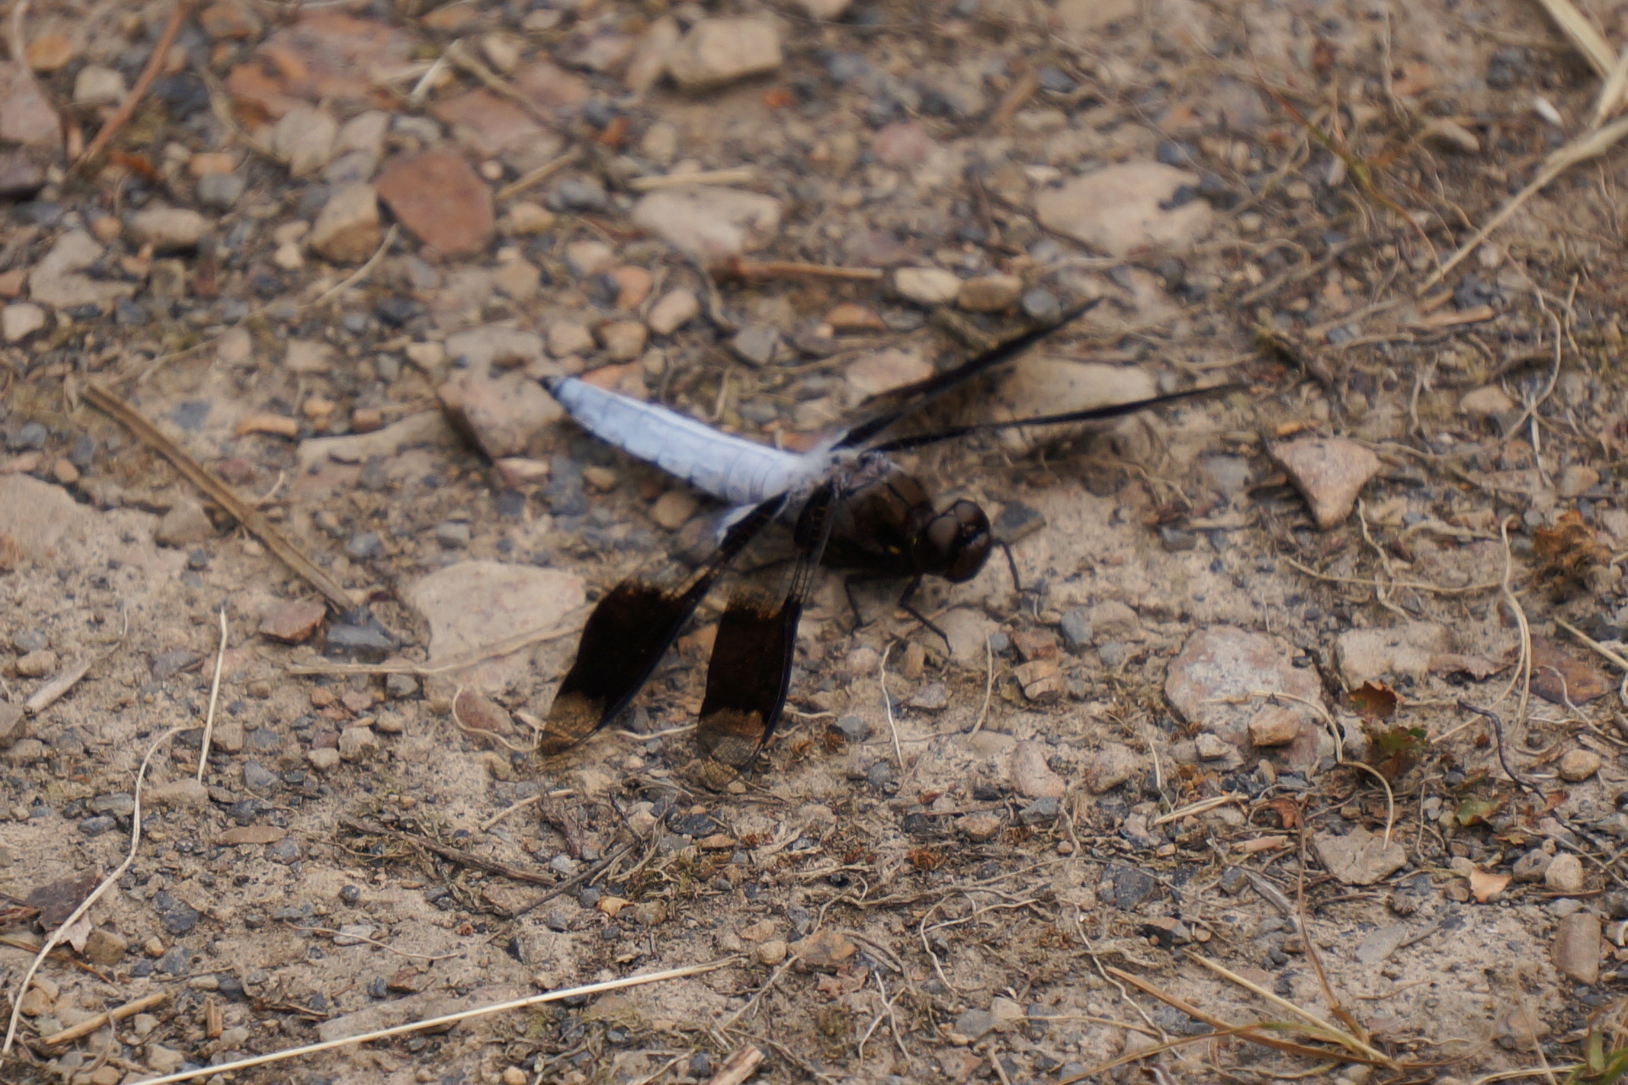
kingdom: Animalia
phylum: Arthropoda
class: Insecta
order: Odonata
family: Libellulidae
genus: Plathemis
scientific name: Plathemis lydia
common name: Common whitetail
